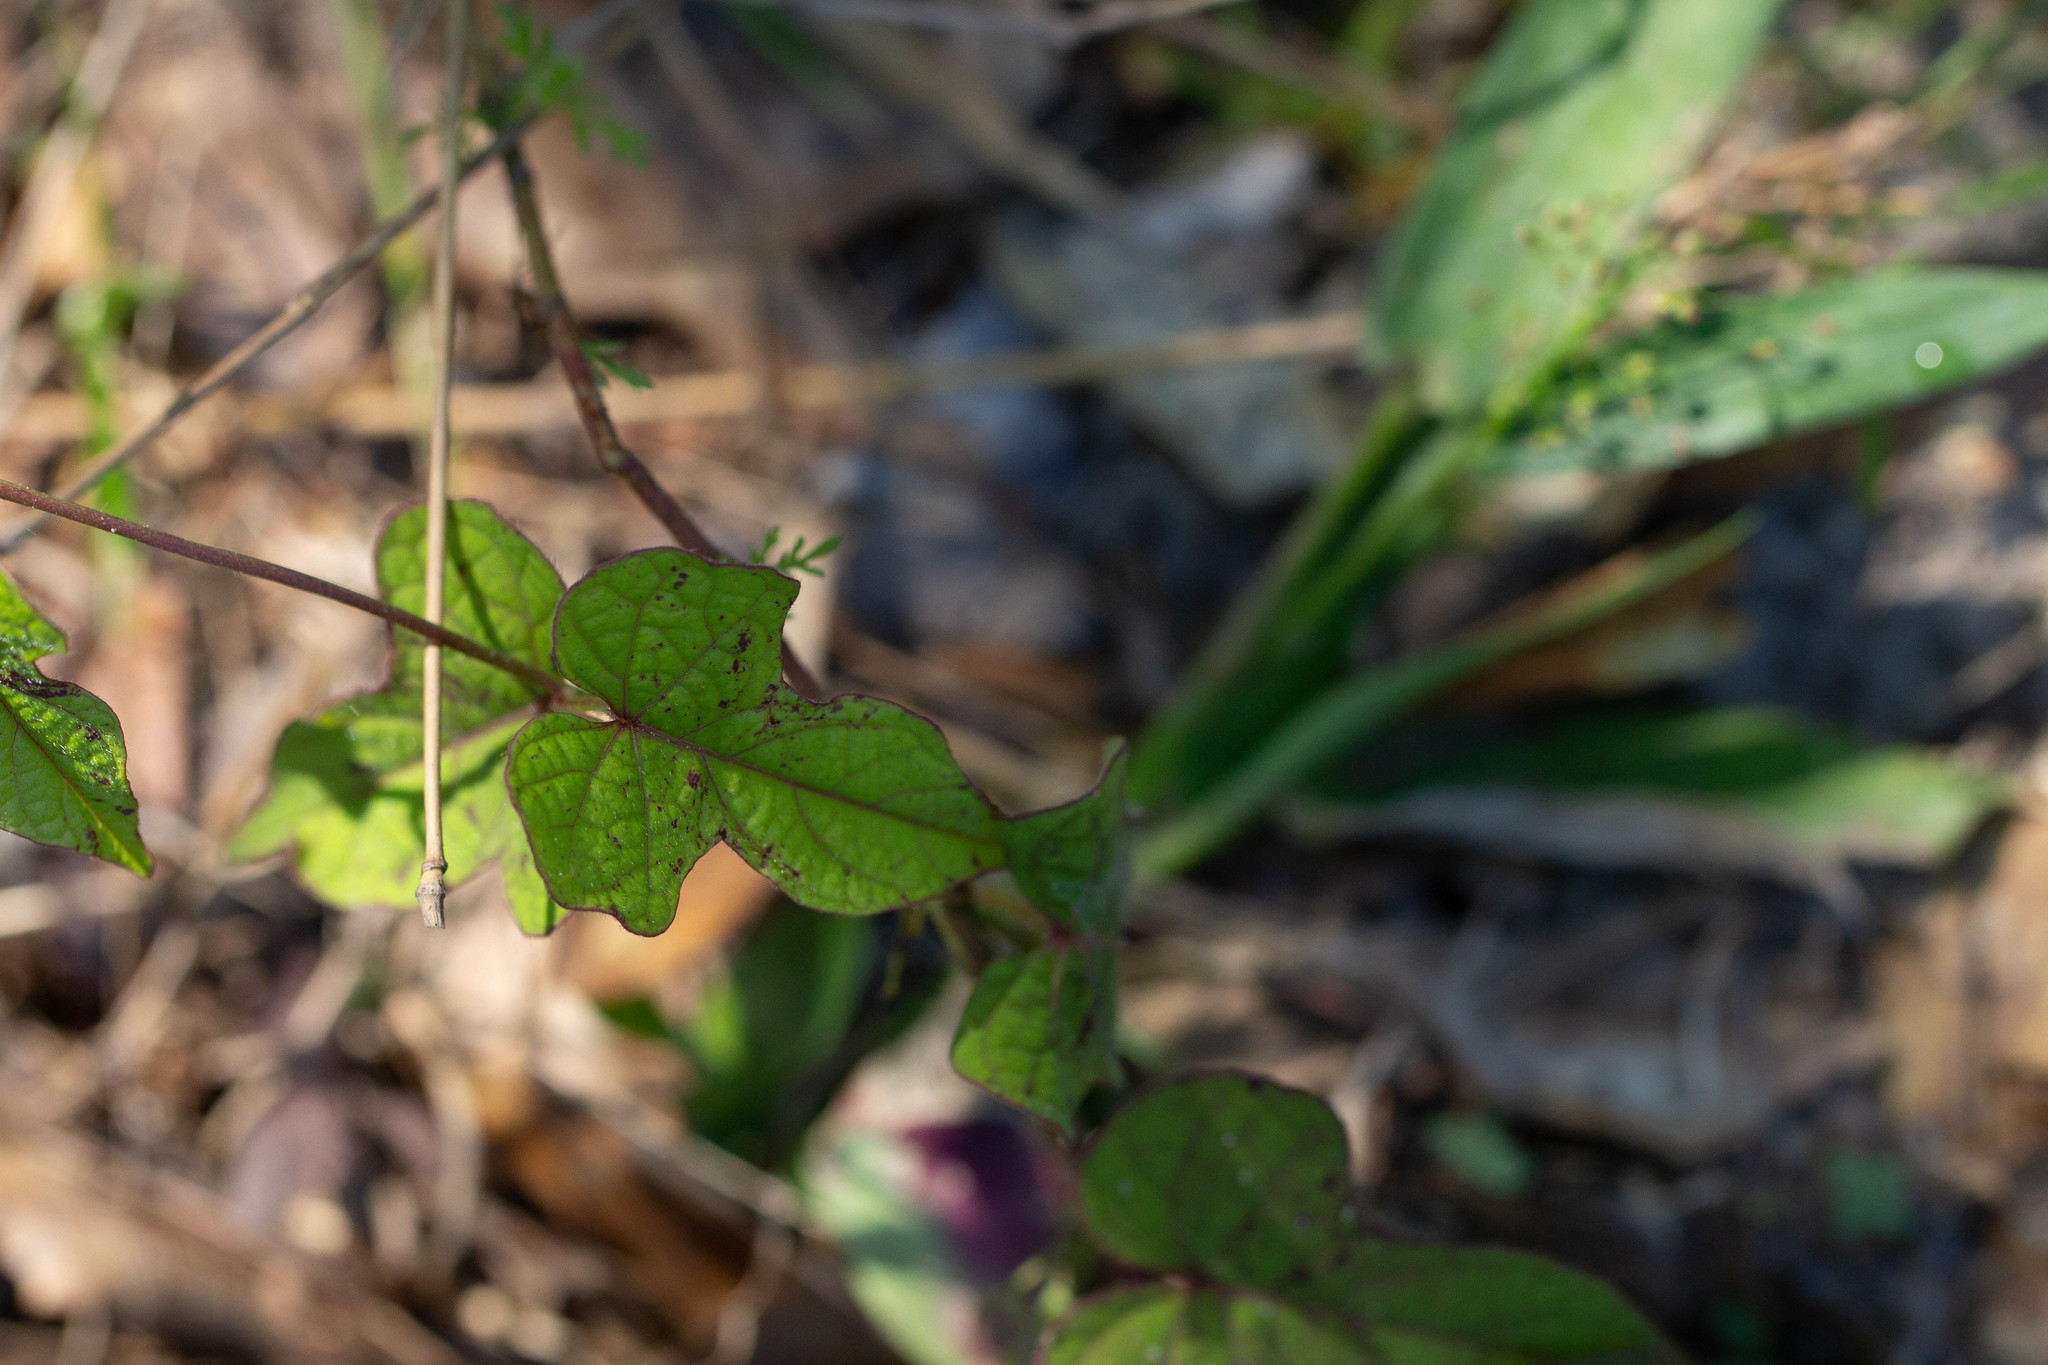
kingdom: Plantae
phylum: Tracheophyta
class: Magnoliopsida
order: Solanales
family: Convolvulaceae
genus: Ipomoea
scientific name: Ipomoea pandurata
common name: Man-of-the-earth
